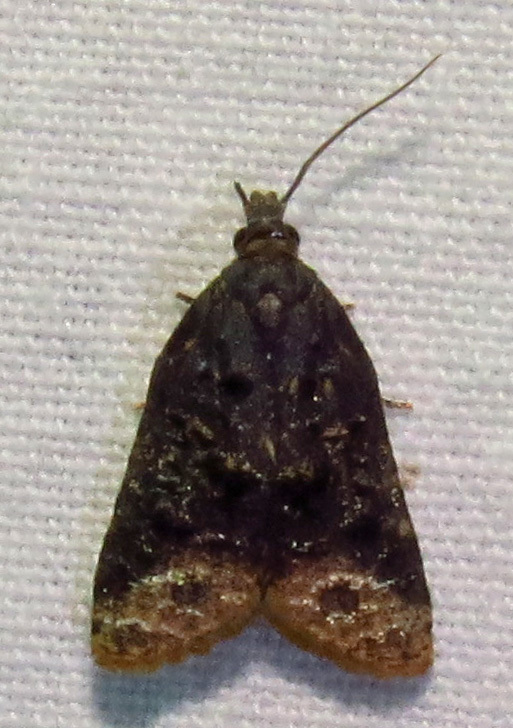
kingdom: Animalia
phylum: Arthropoda
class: Insecta
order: Lepidoptera
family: Tortricidae
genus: Platynota
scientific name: Platynota semiustana
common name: Singed platynota
